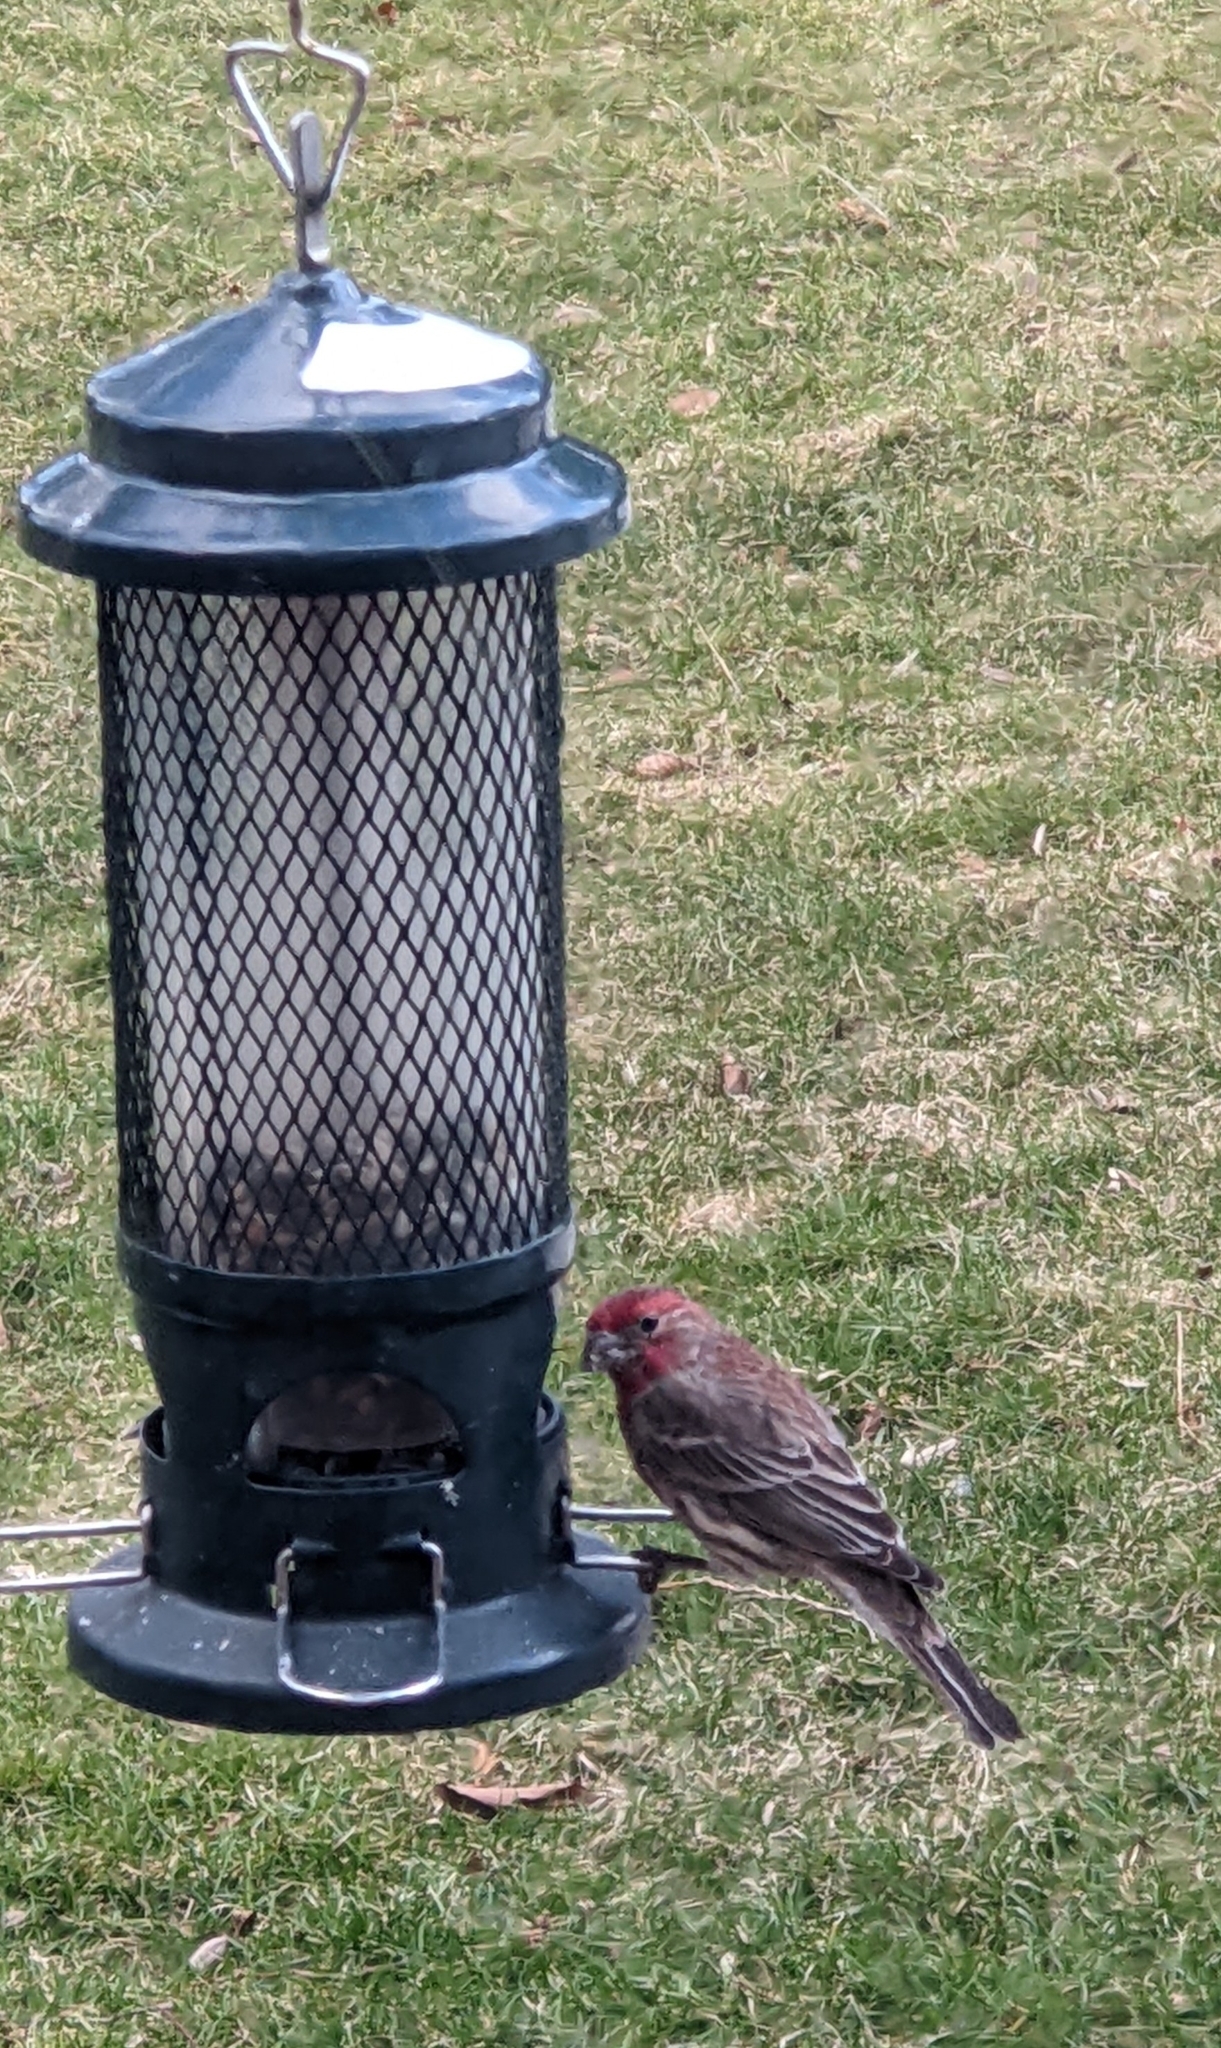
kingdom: Animalia
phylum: Chordata
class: Aves
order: Passeriformes
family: Fringillidae
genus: Haemorhous
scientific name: Haemorhous mexicanus
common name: House finch
